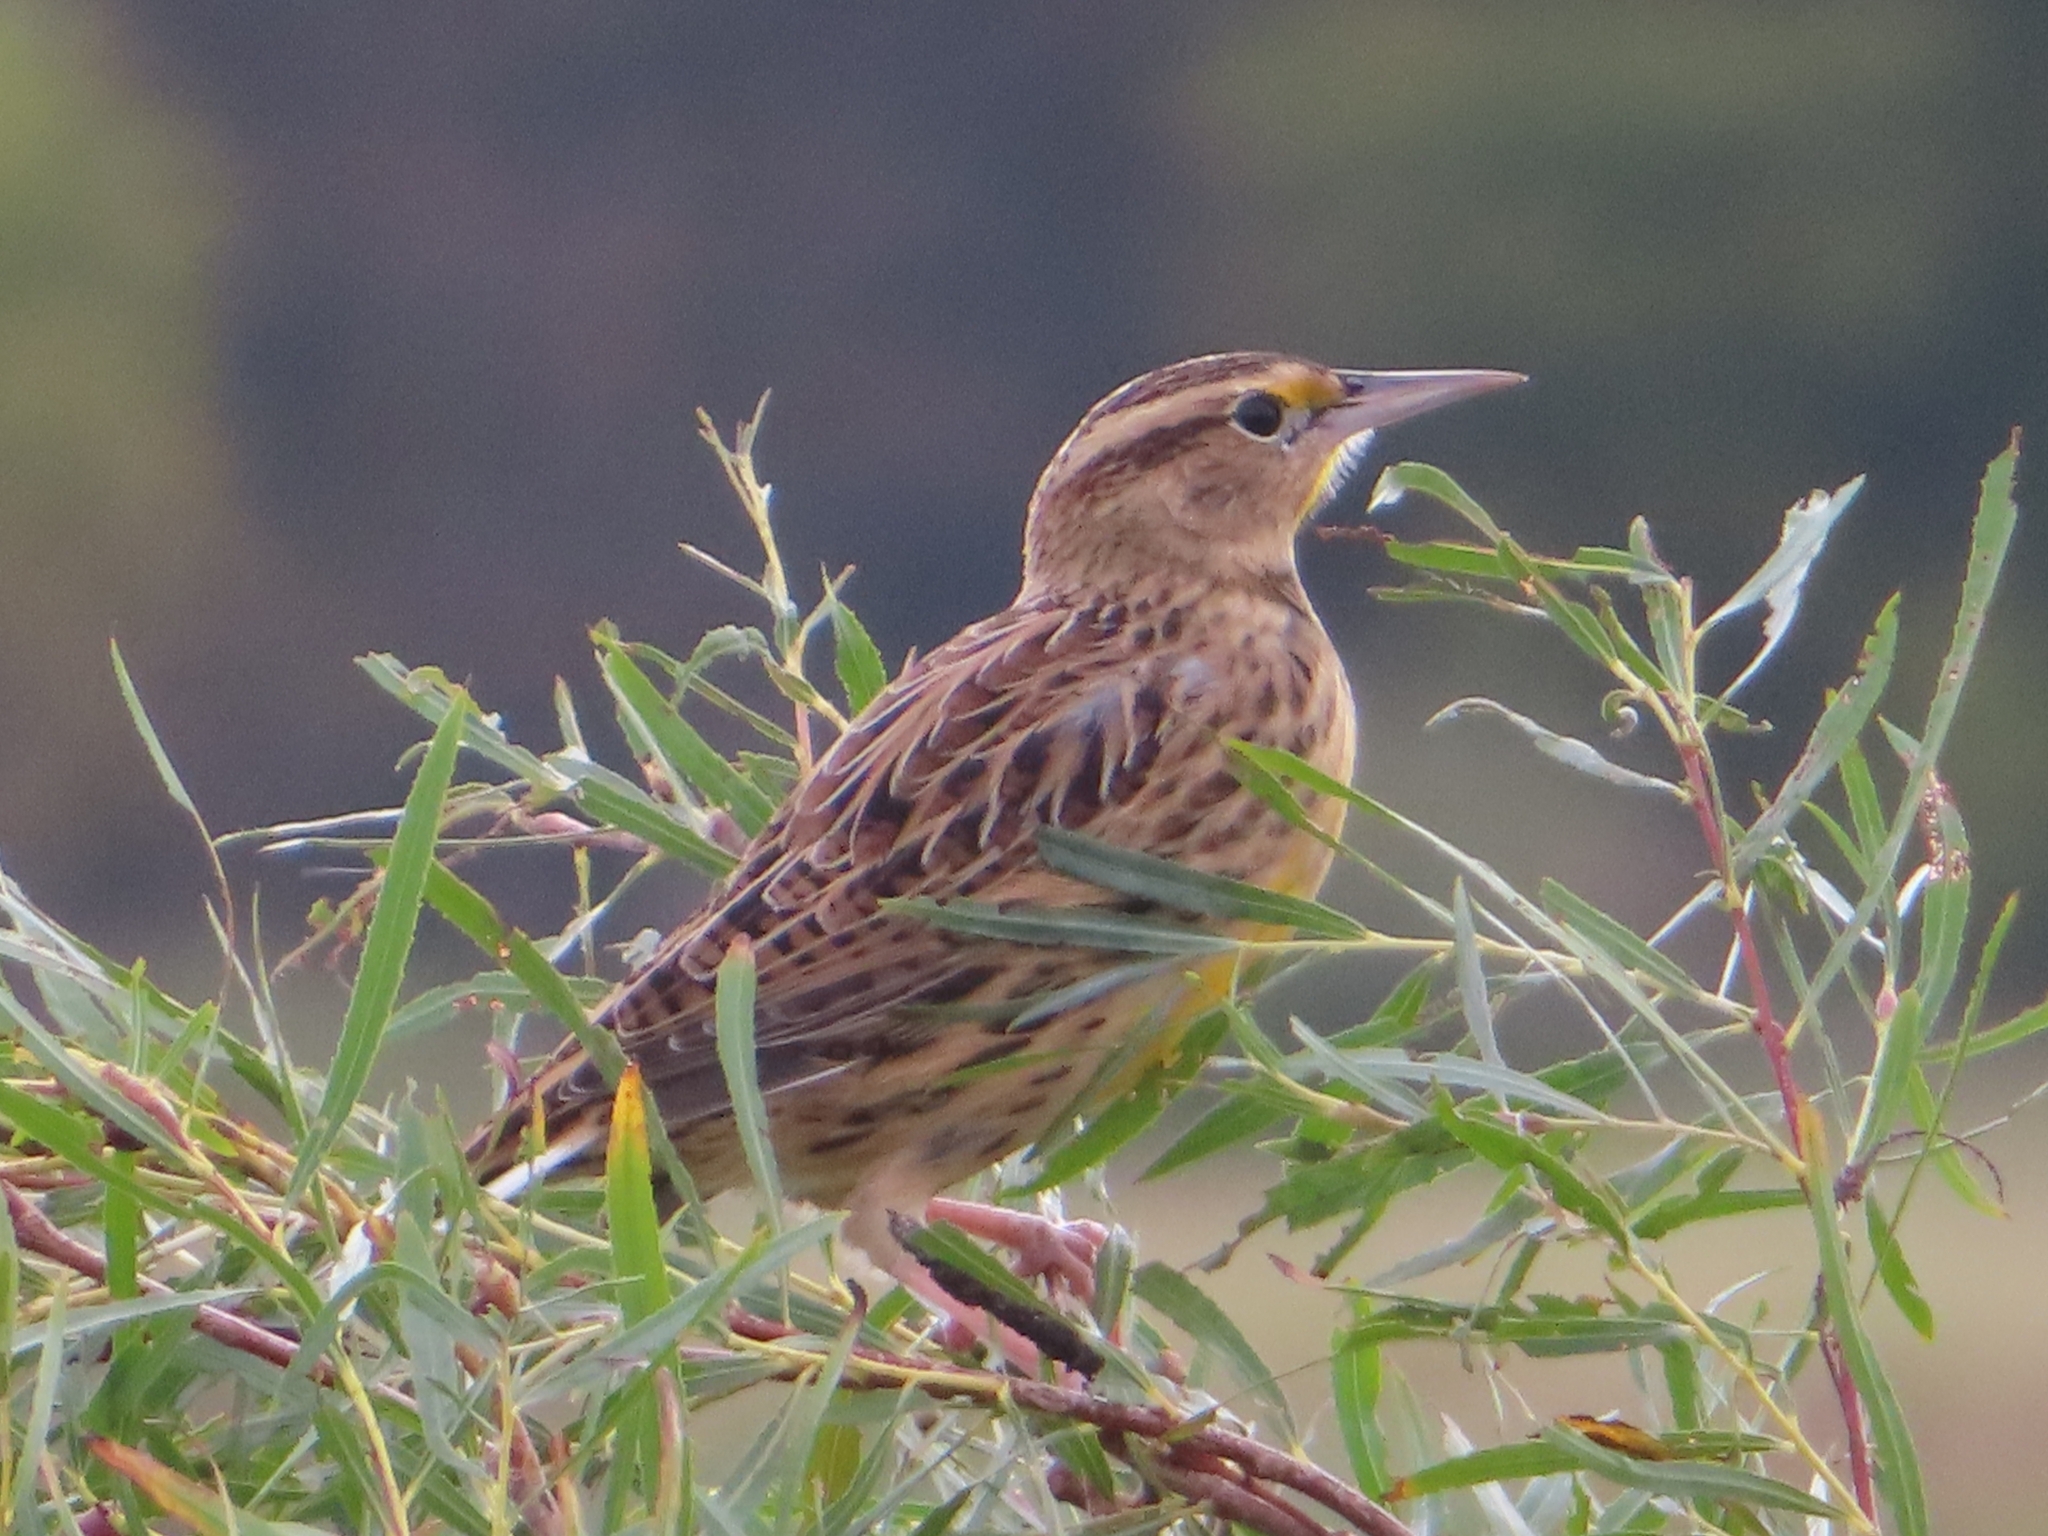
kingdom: Animalia
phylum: Chordata
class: Aves
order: Passeriformes
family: Icteridae
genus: Sturnella
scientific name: Sturnella magna
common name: Eastern meadowlark
